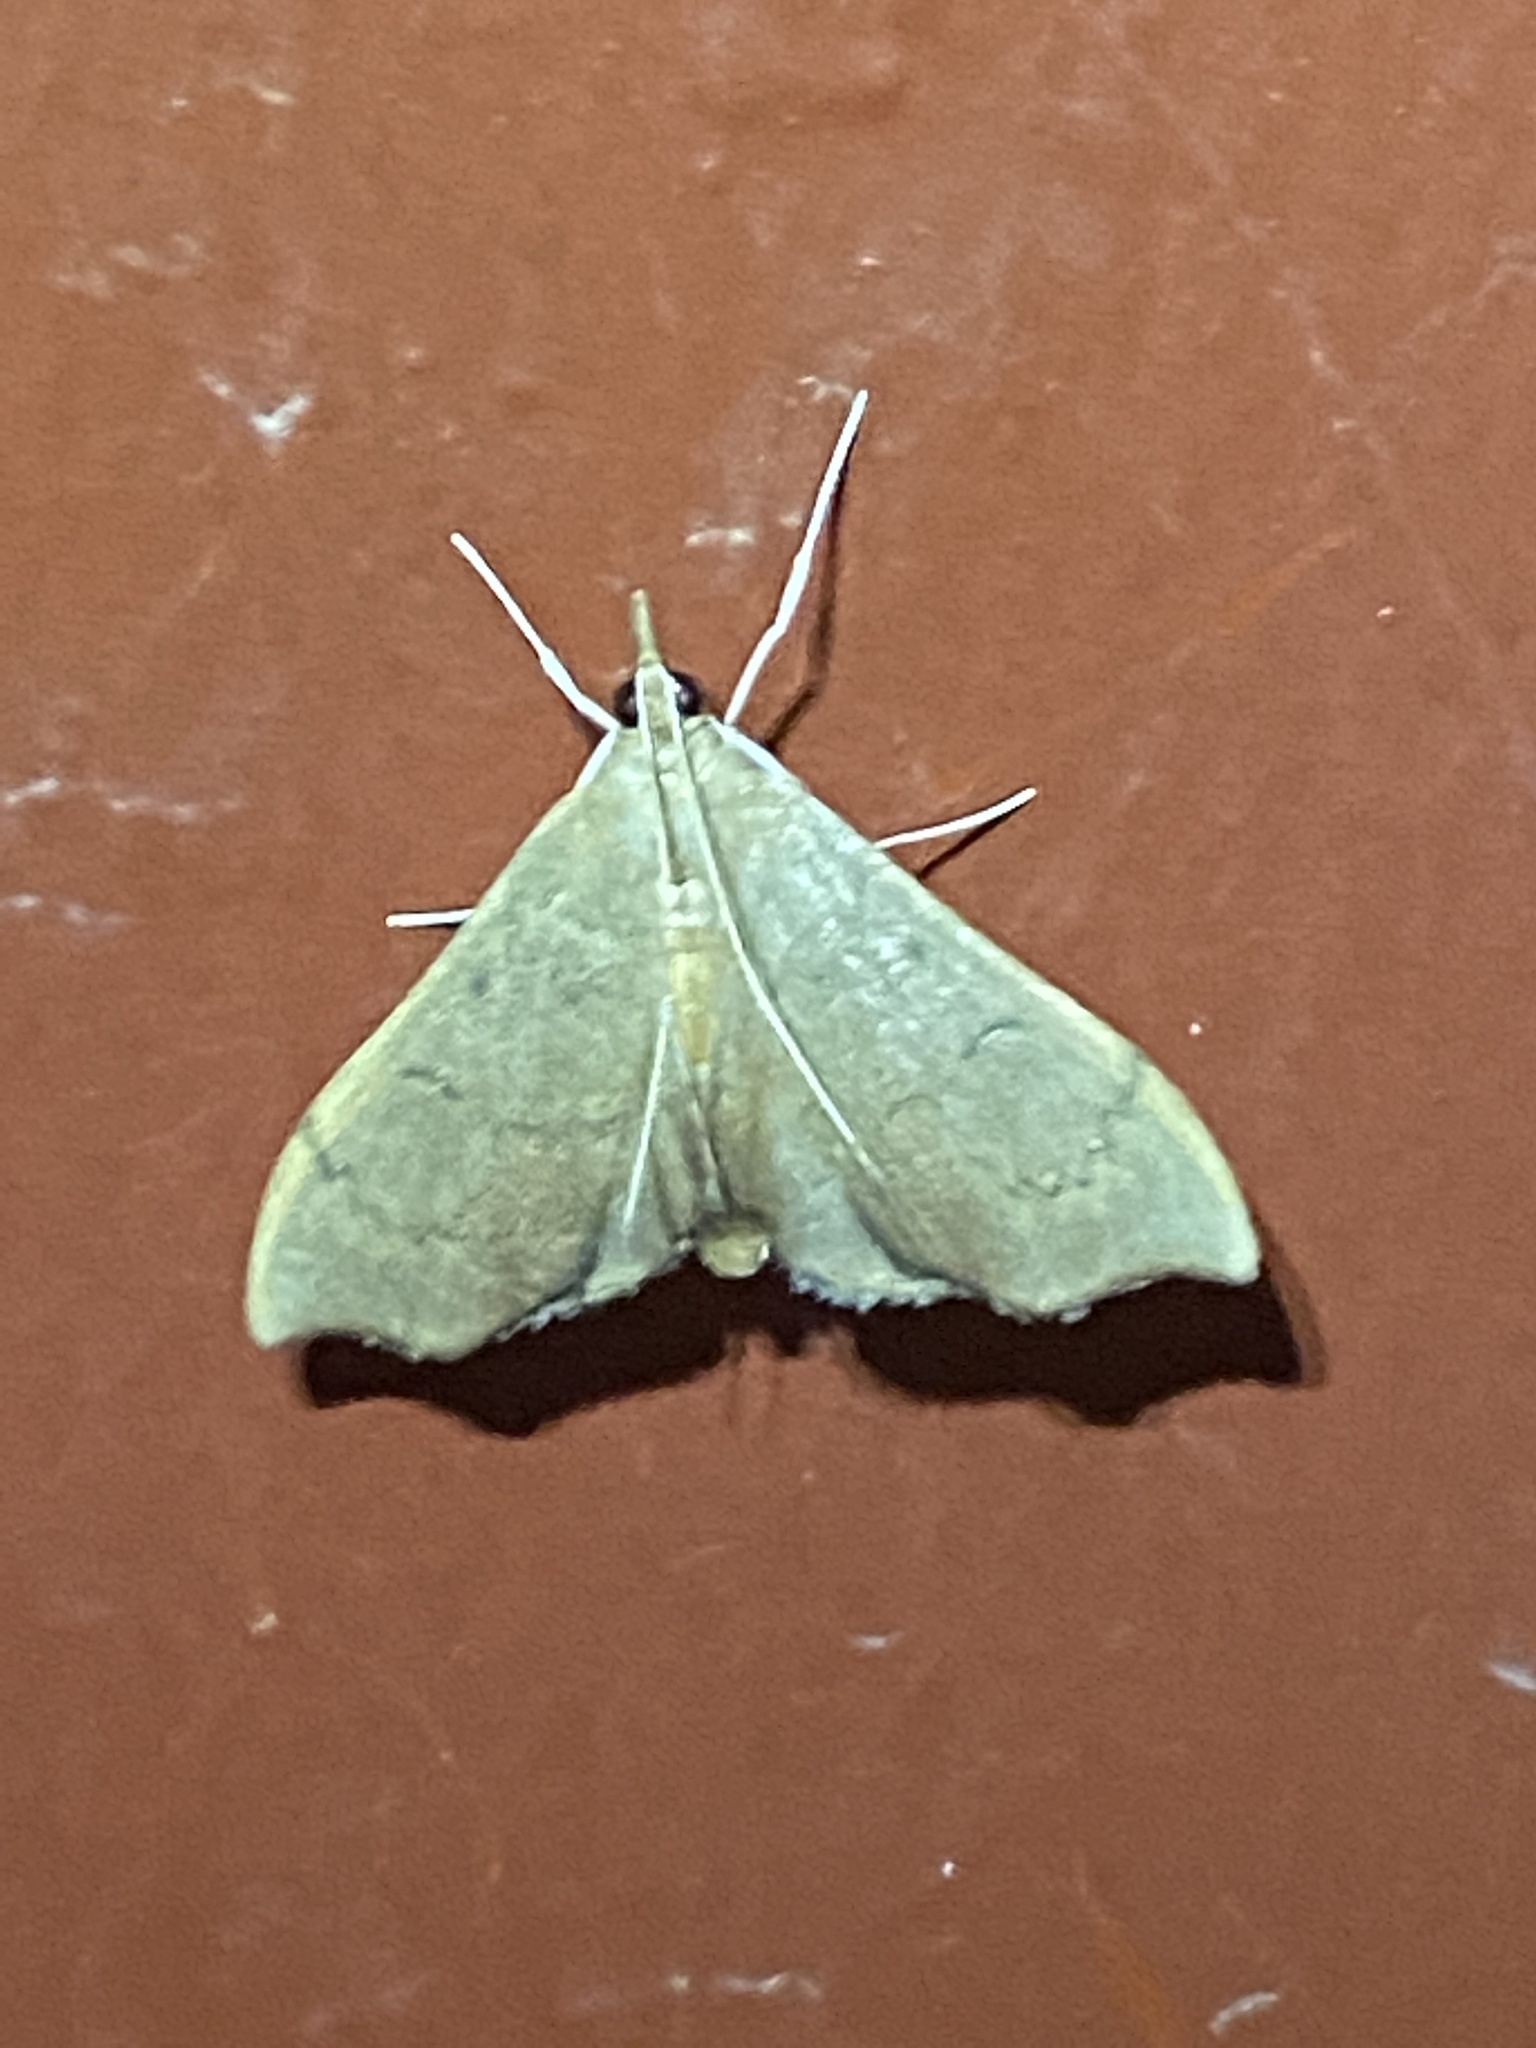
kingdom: Animalia
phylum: Arthropoda
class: Insecta
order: Lepidoptera
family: Crambidae
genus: Sericoplaga
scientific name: Sericoplaga externalis
